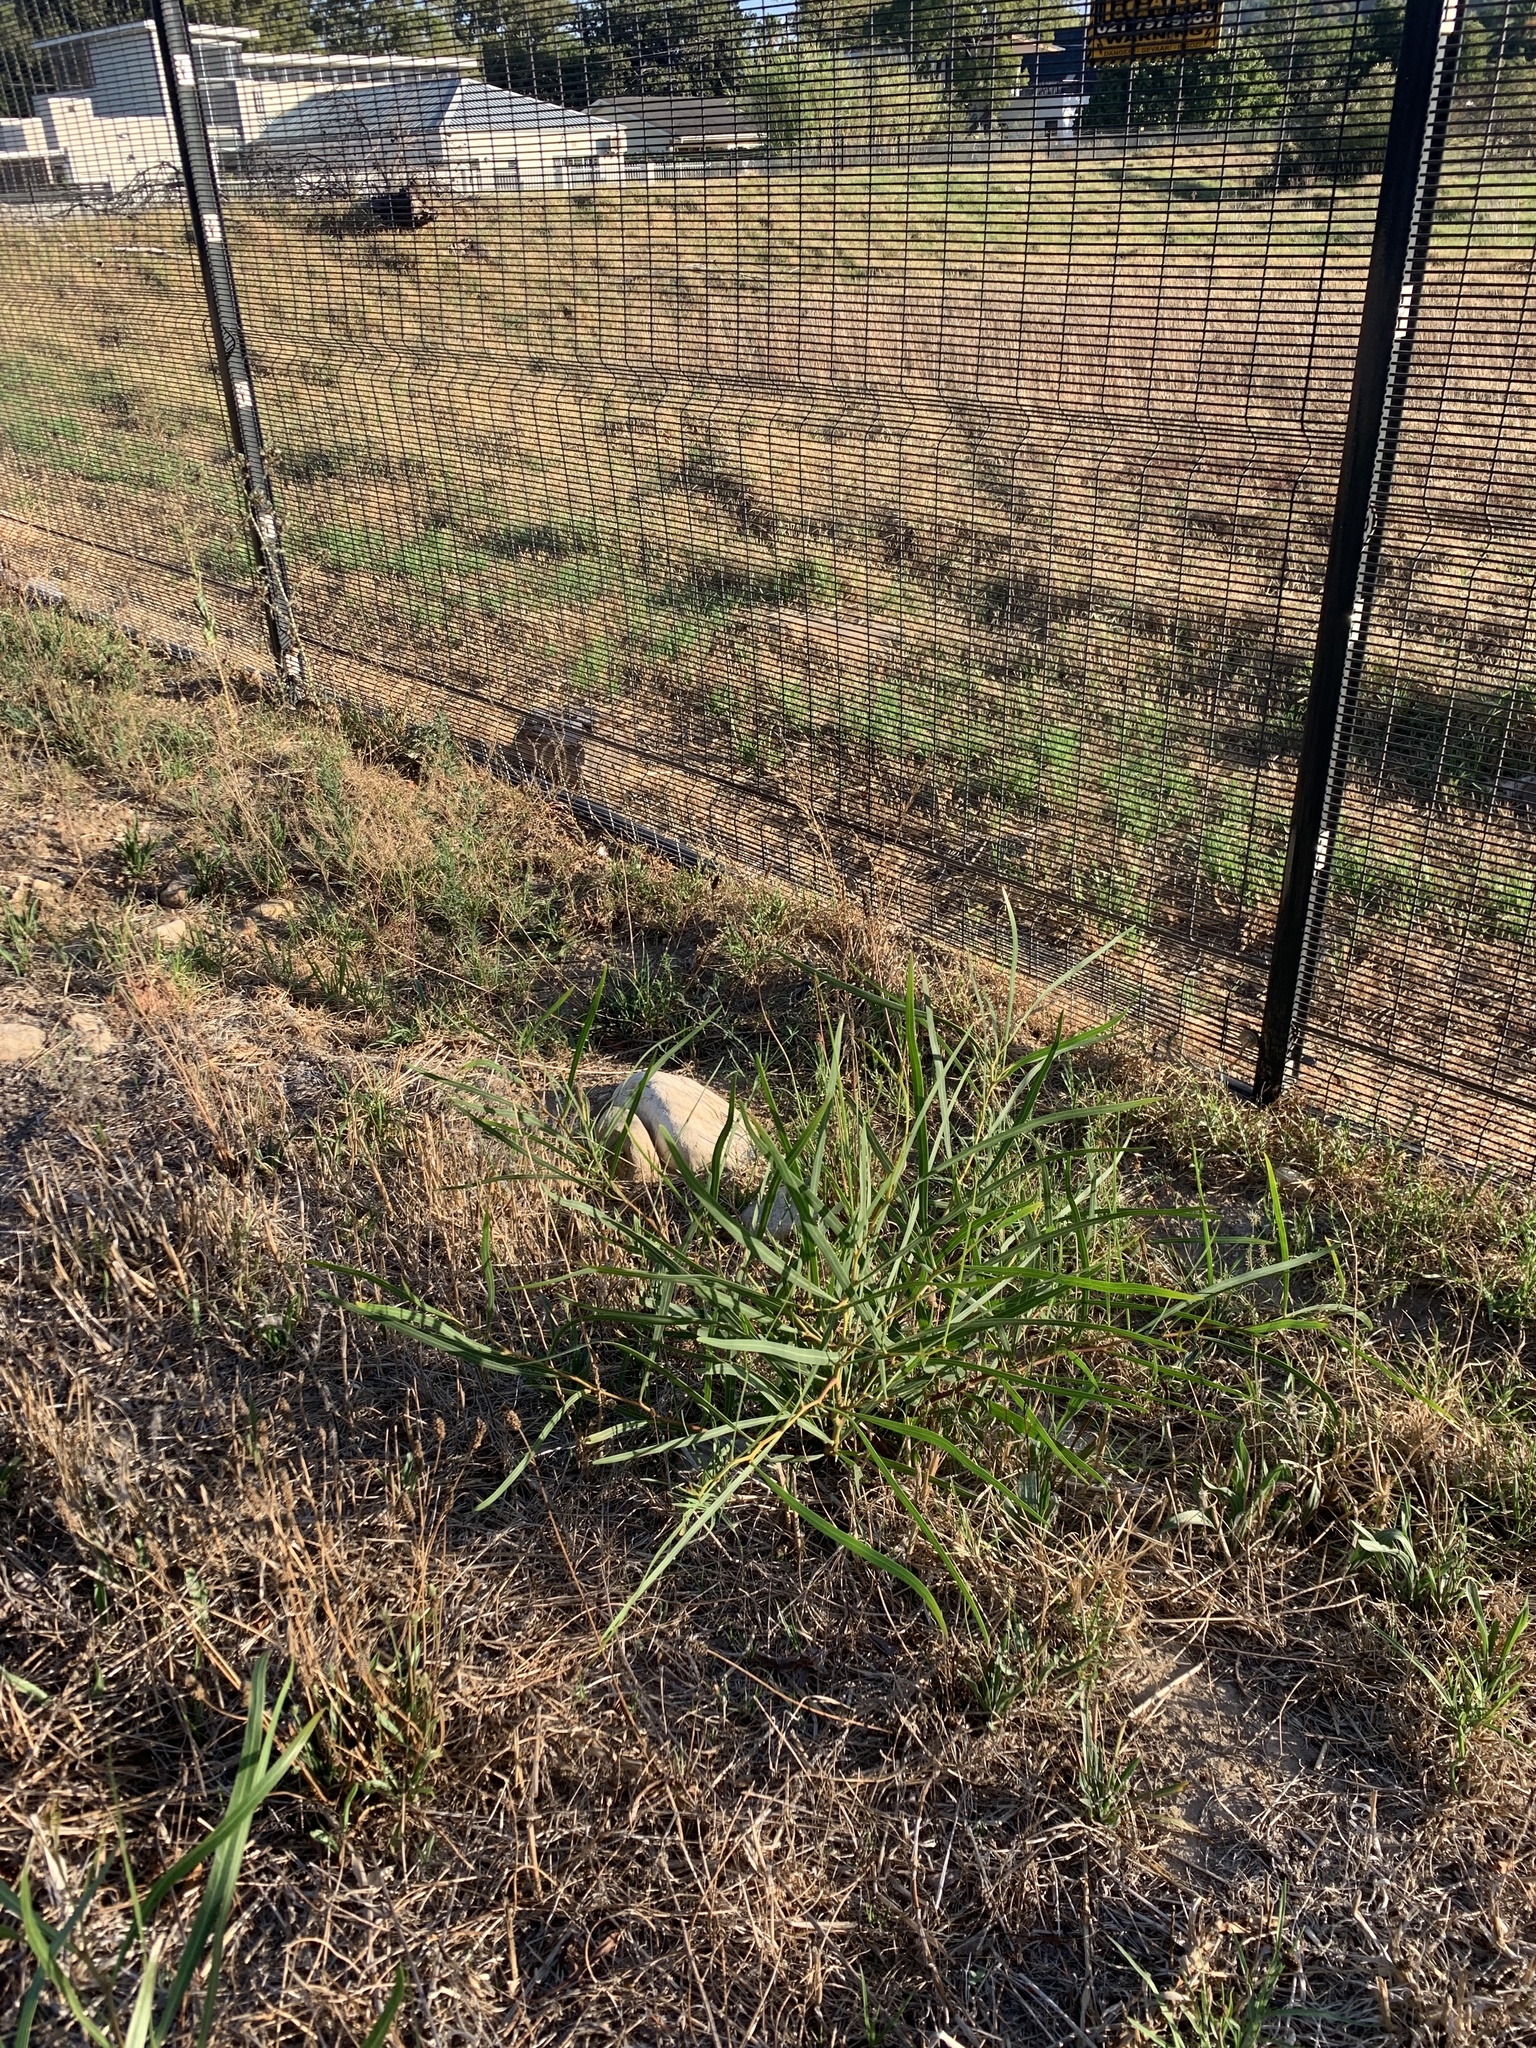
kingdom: Plantae
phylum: Tracheophyta
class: Magnoliopsida
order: Fabales
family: Fabaceae
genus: Acacia
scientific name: Acacia saligna
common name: Orange wattle
